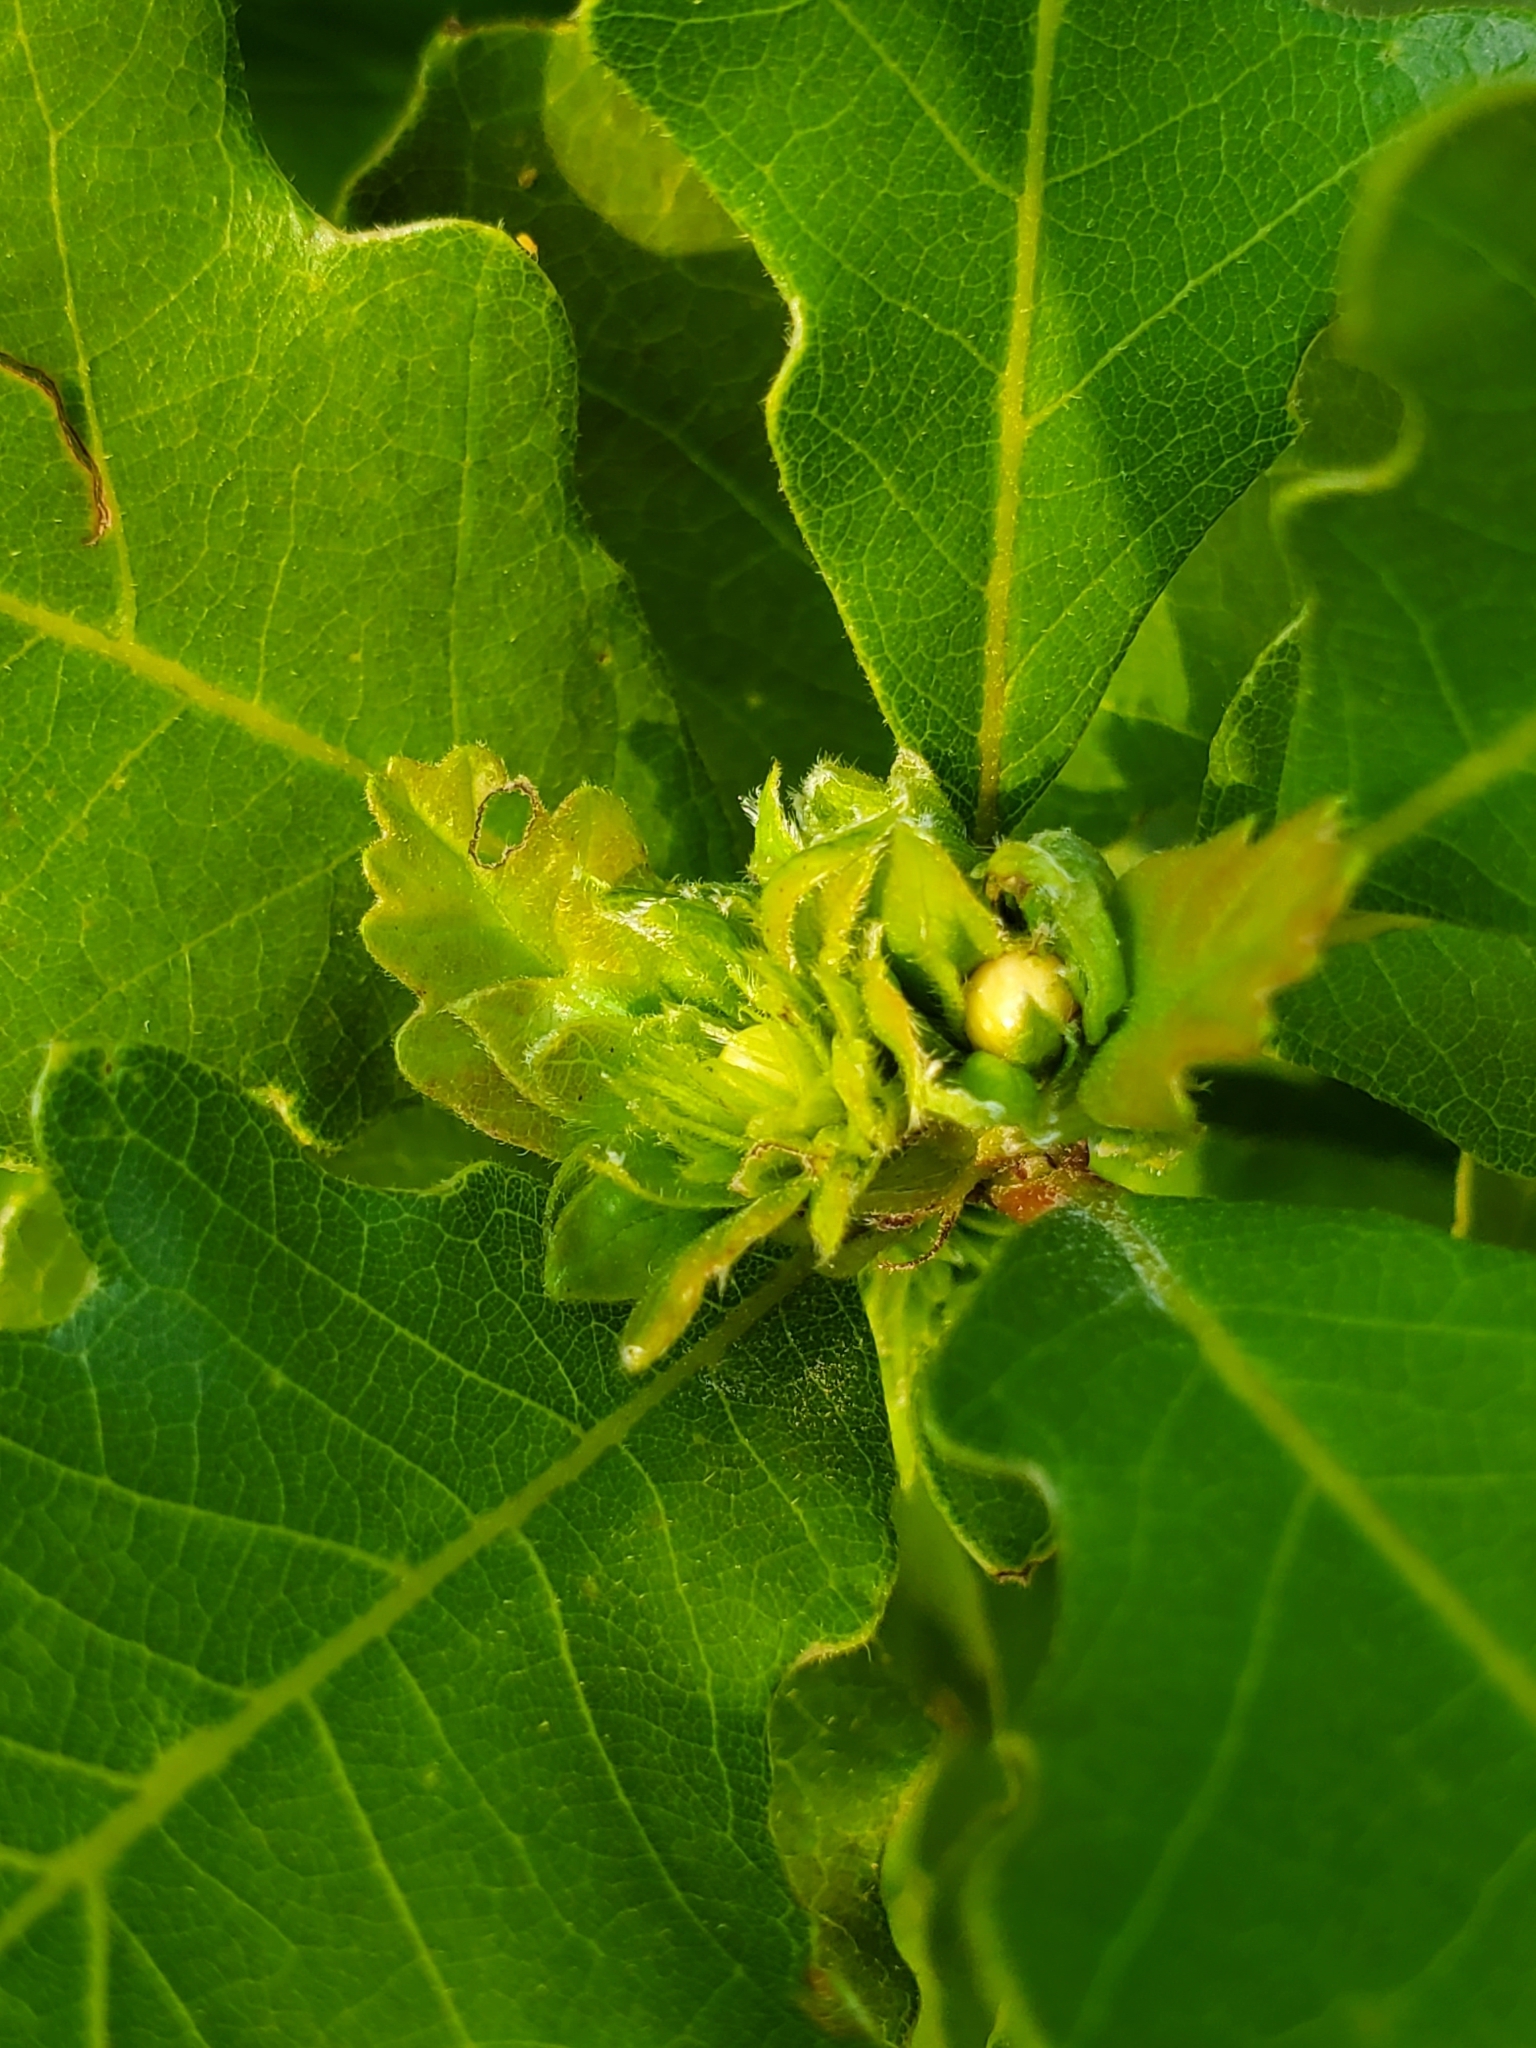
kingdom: Animalia
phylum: Arthropoda
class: Insecta
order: Hymenoptera
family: Cynipidae
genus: Andricus
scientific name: Andricus
